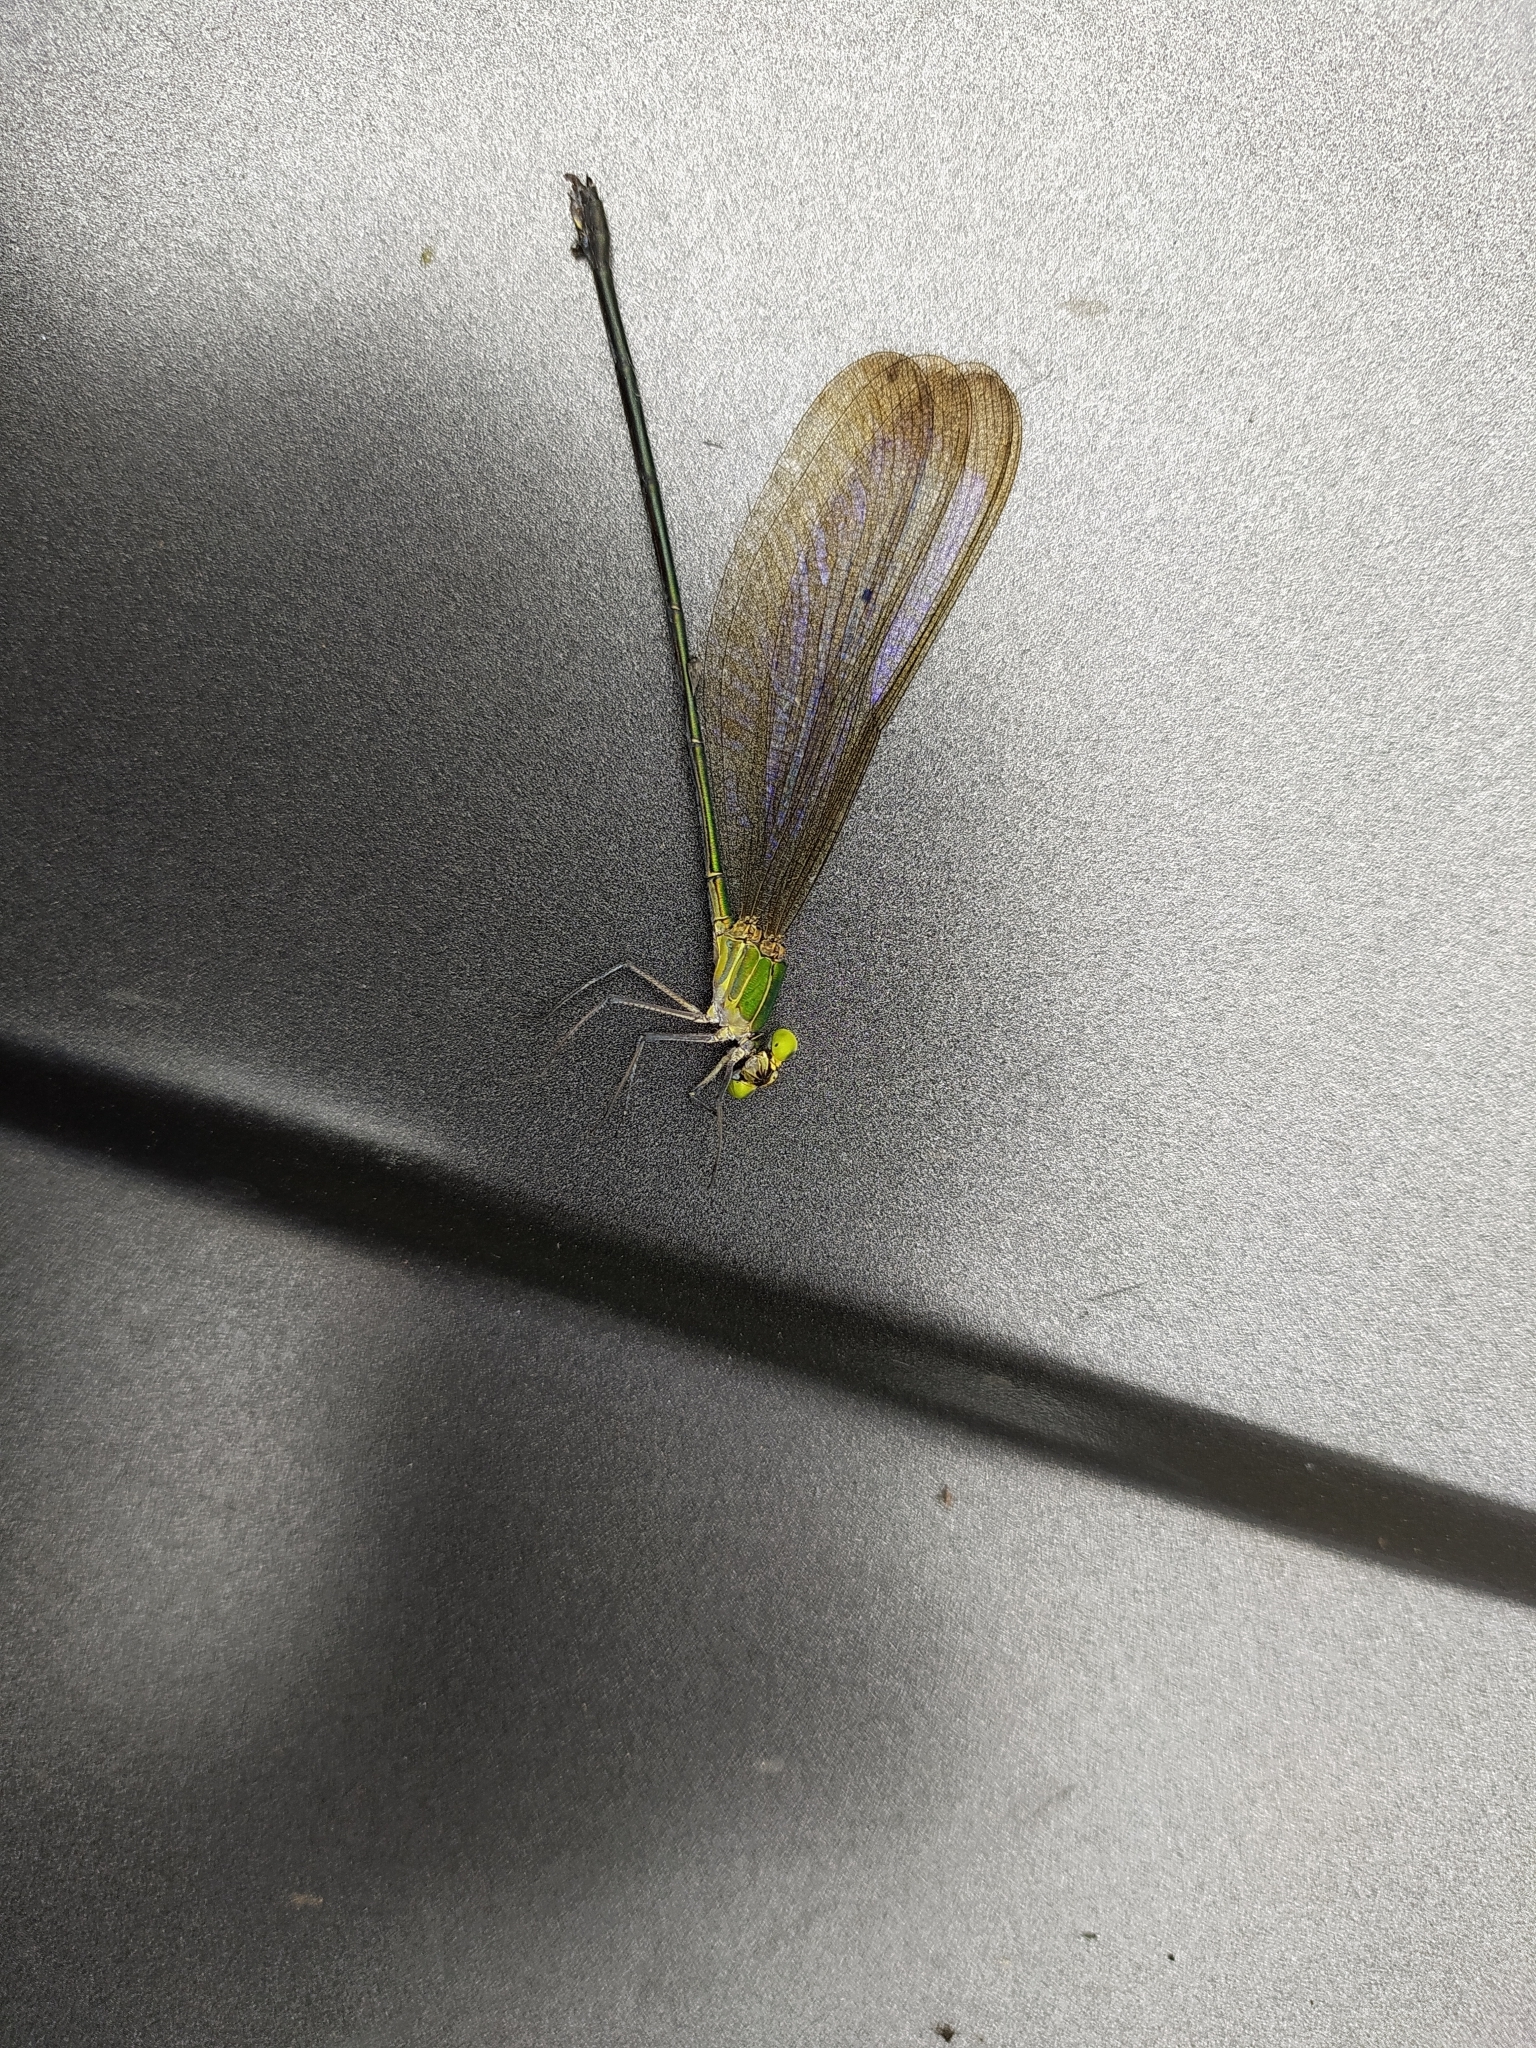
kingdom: Animalia
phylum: Arthropoda
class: Insecta
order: Odonata
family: Calopterygidae
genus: Vestalis
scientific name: Vestalis gracilis
